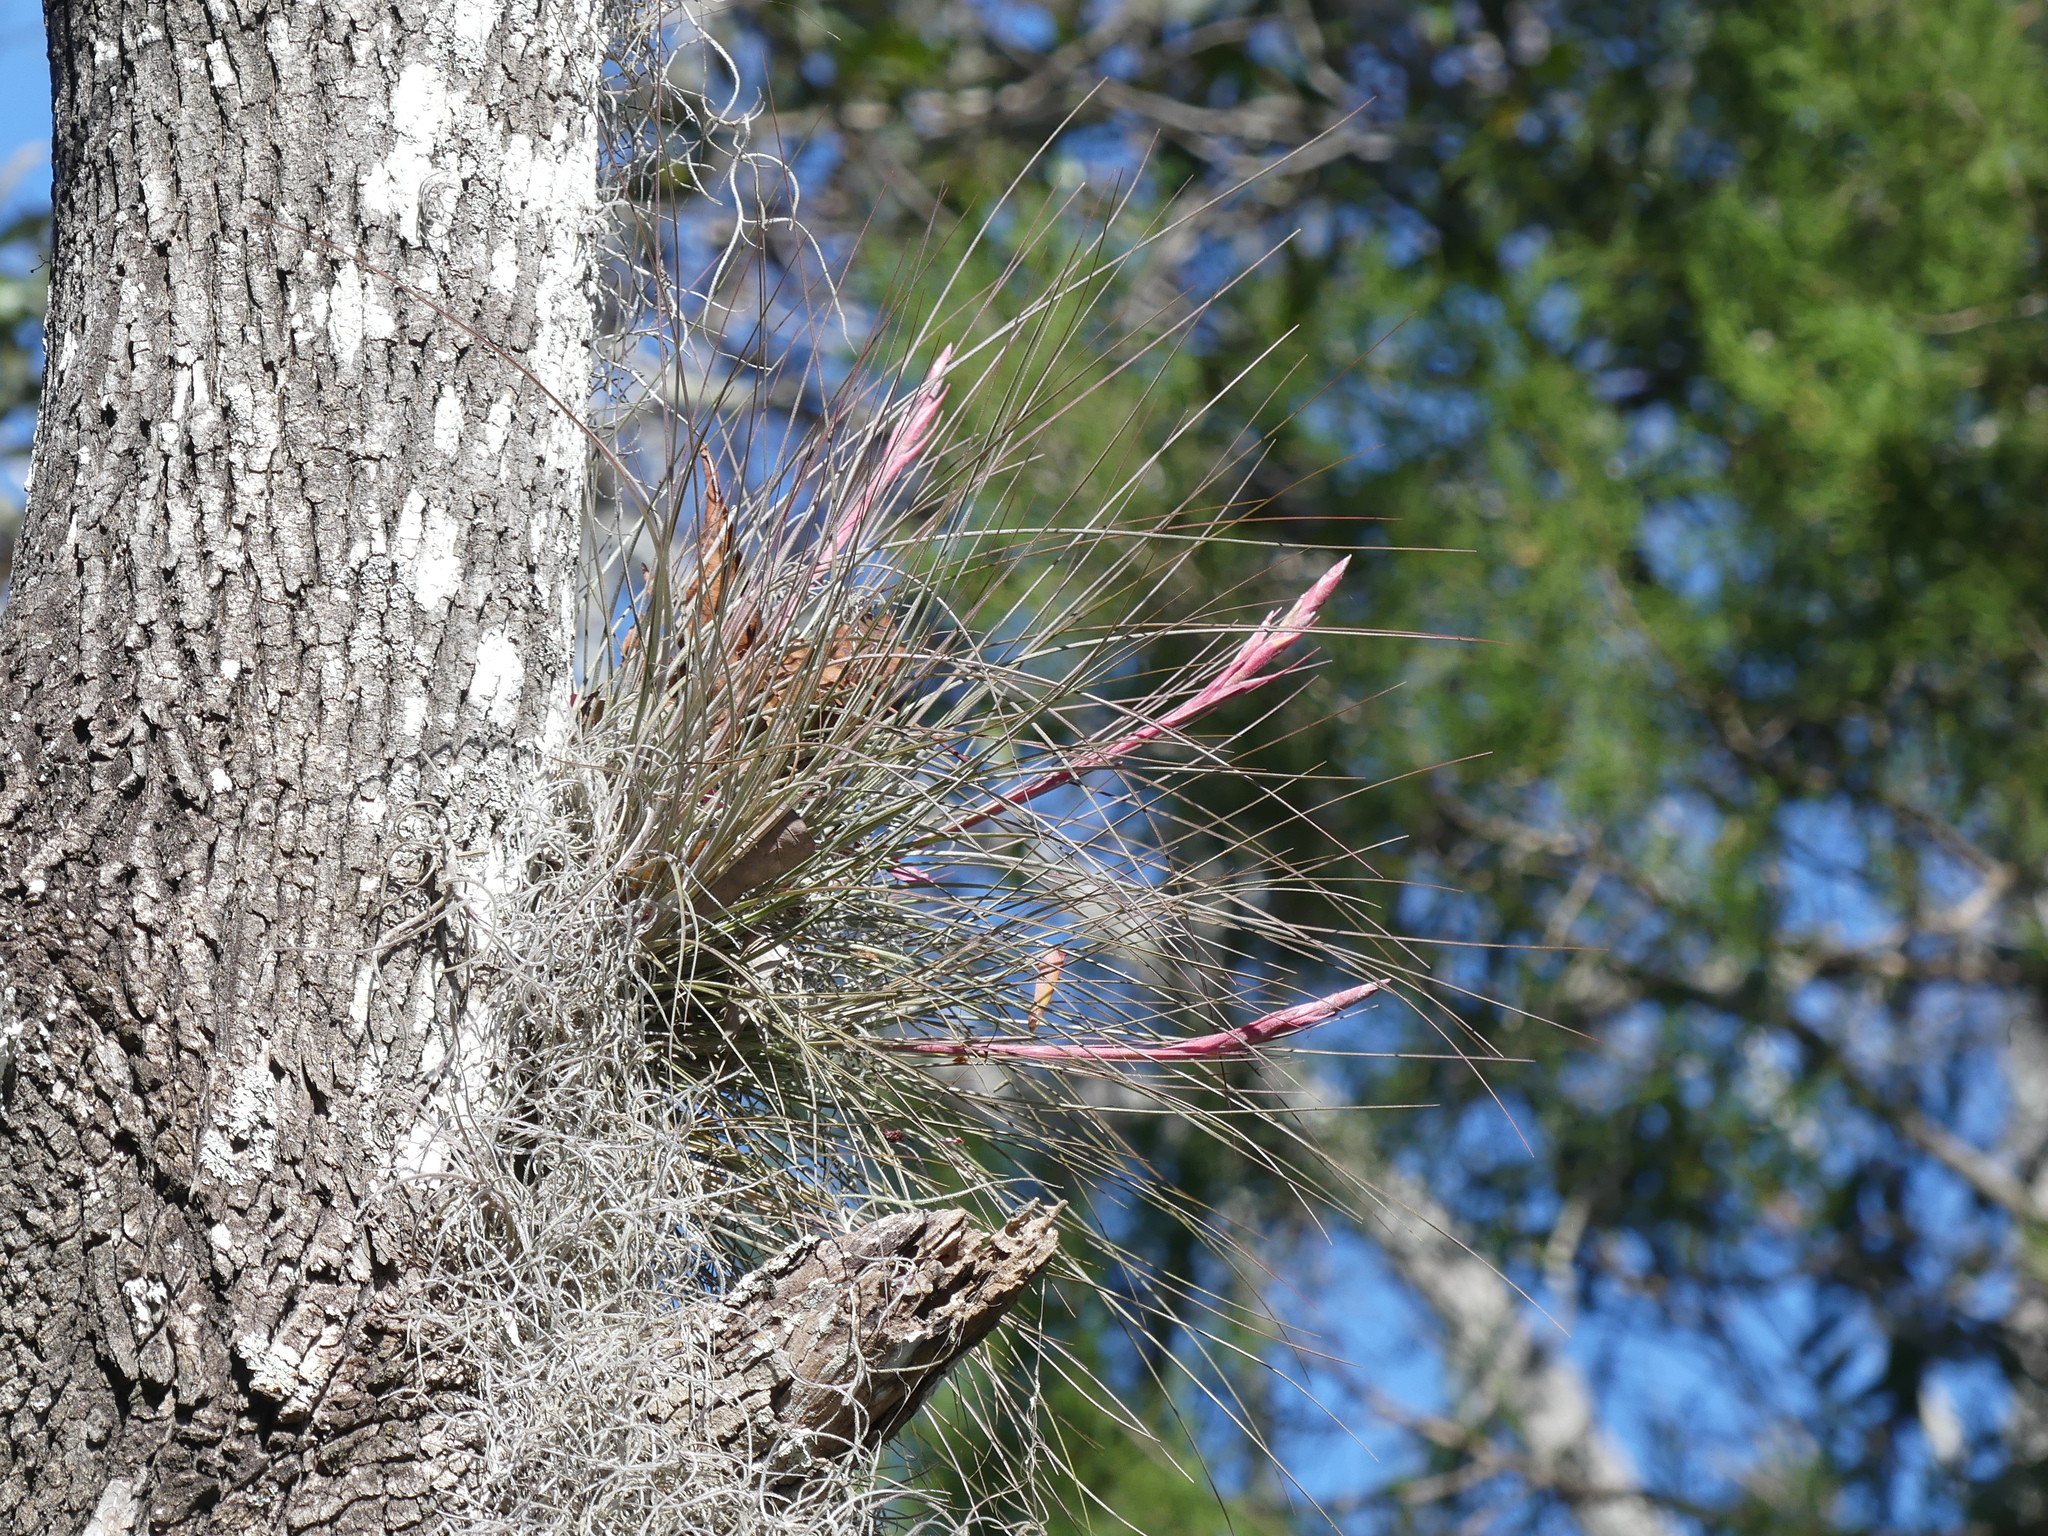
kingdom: Plantae
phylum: Tracheophyta
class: Liliopsida
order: Poales
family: Bromeliaceae
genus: Tillandsia
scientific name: Tillandsia bartramii
